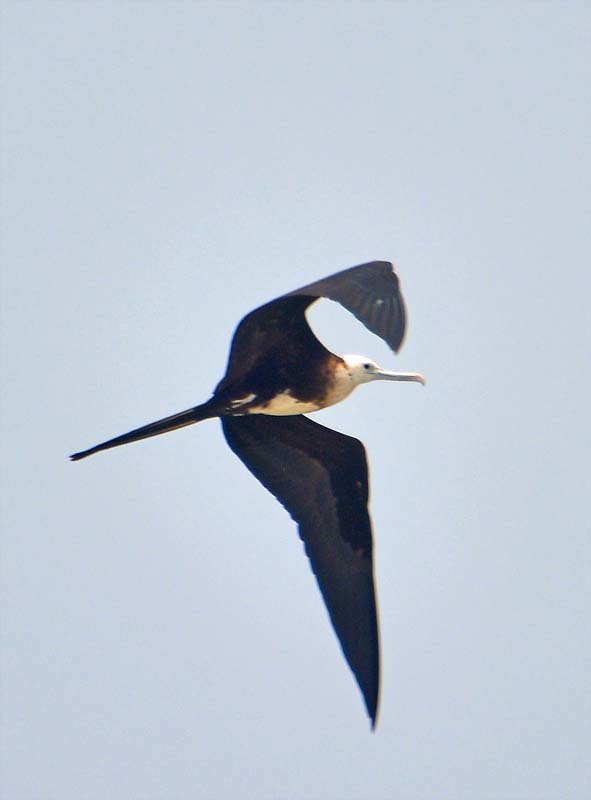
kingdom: Animalia
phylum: Chordata
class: Aves
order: Suliformes
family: Fregatidae
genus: Fregata
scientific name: Fregata magnificens
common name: Magnificent frigatebird
